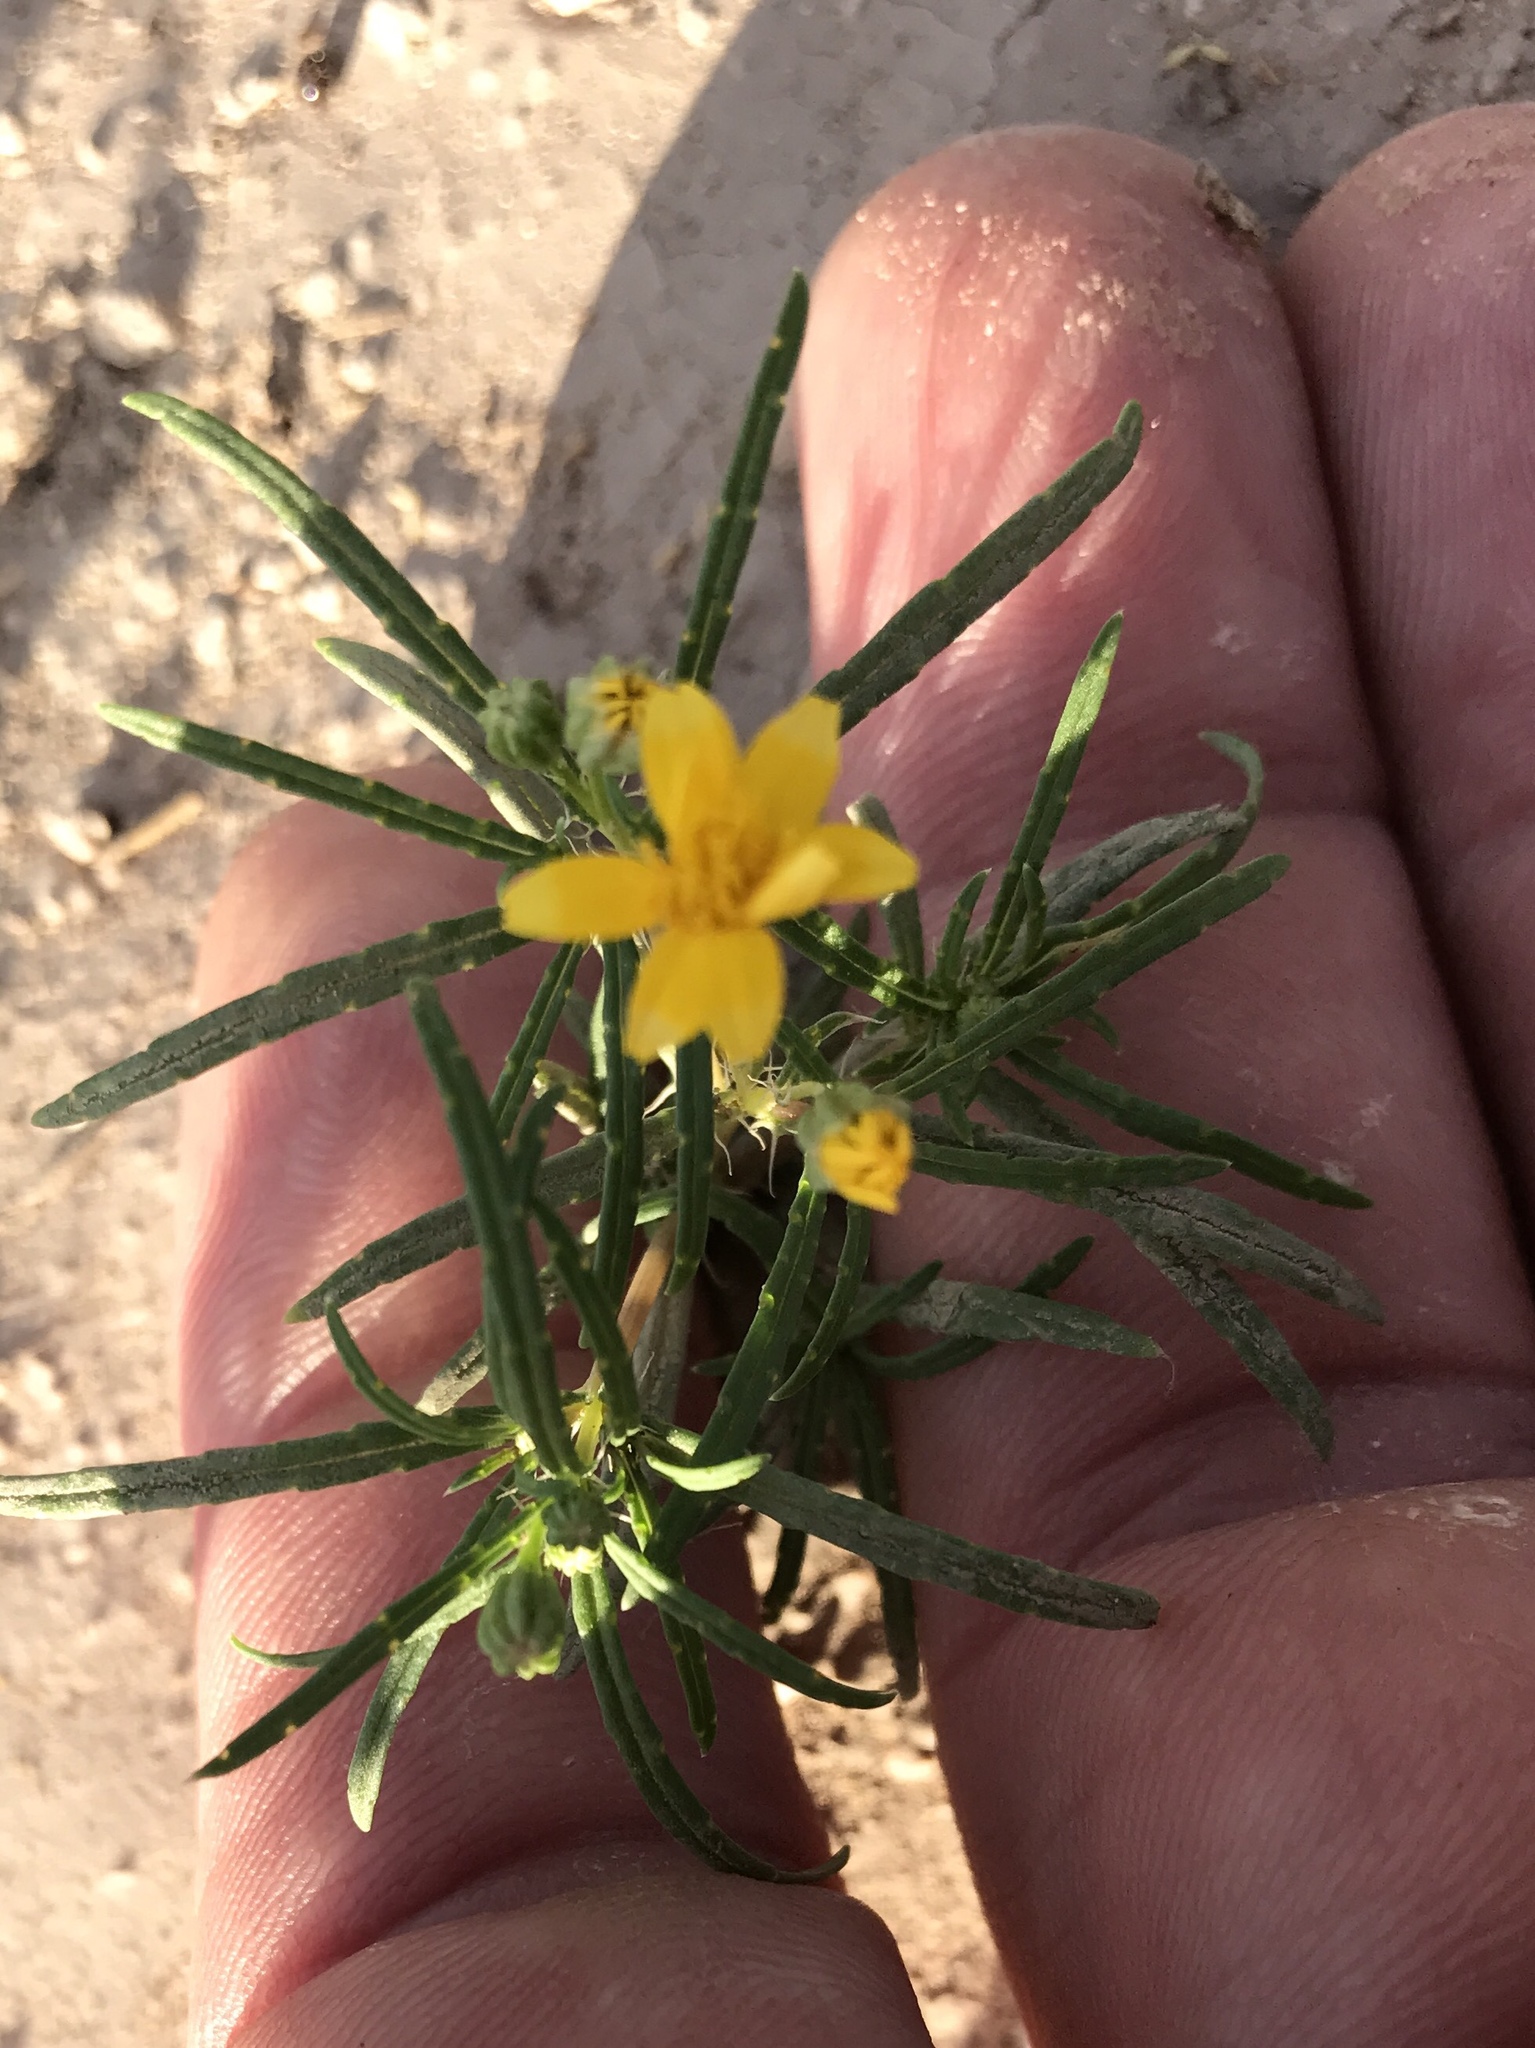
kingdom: Plantae
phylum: Tracheophyta
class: Magnoliopsida
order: Asterales
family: Asteraceae
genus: Pectis
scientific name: Pectis papposa
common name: Many-bristle chinchweed
